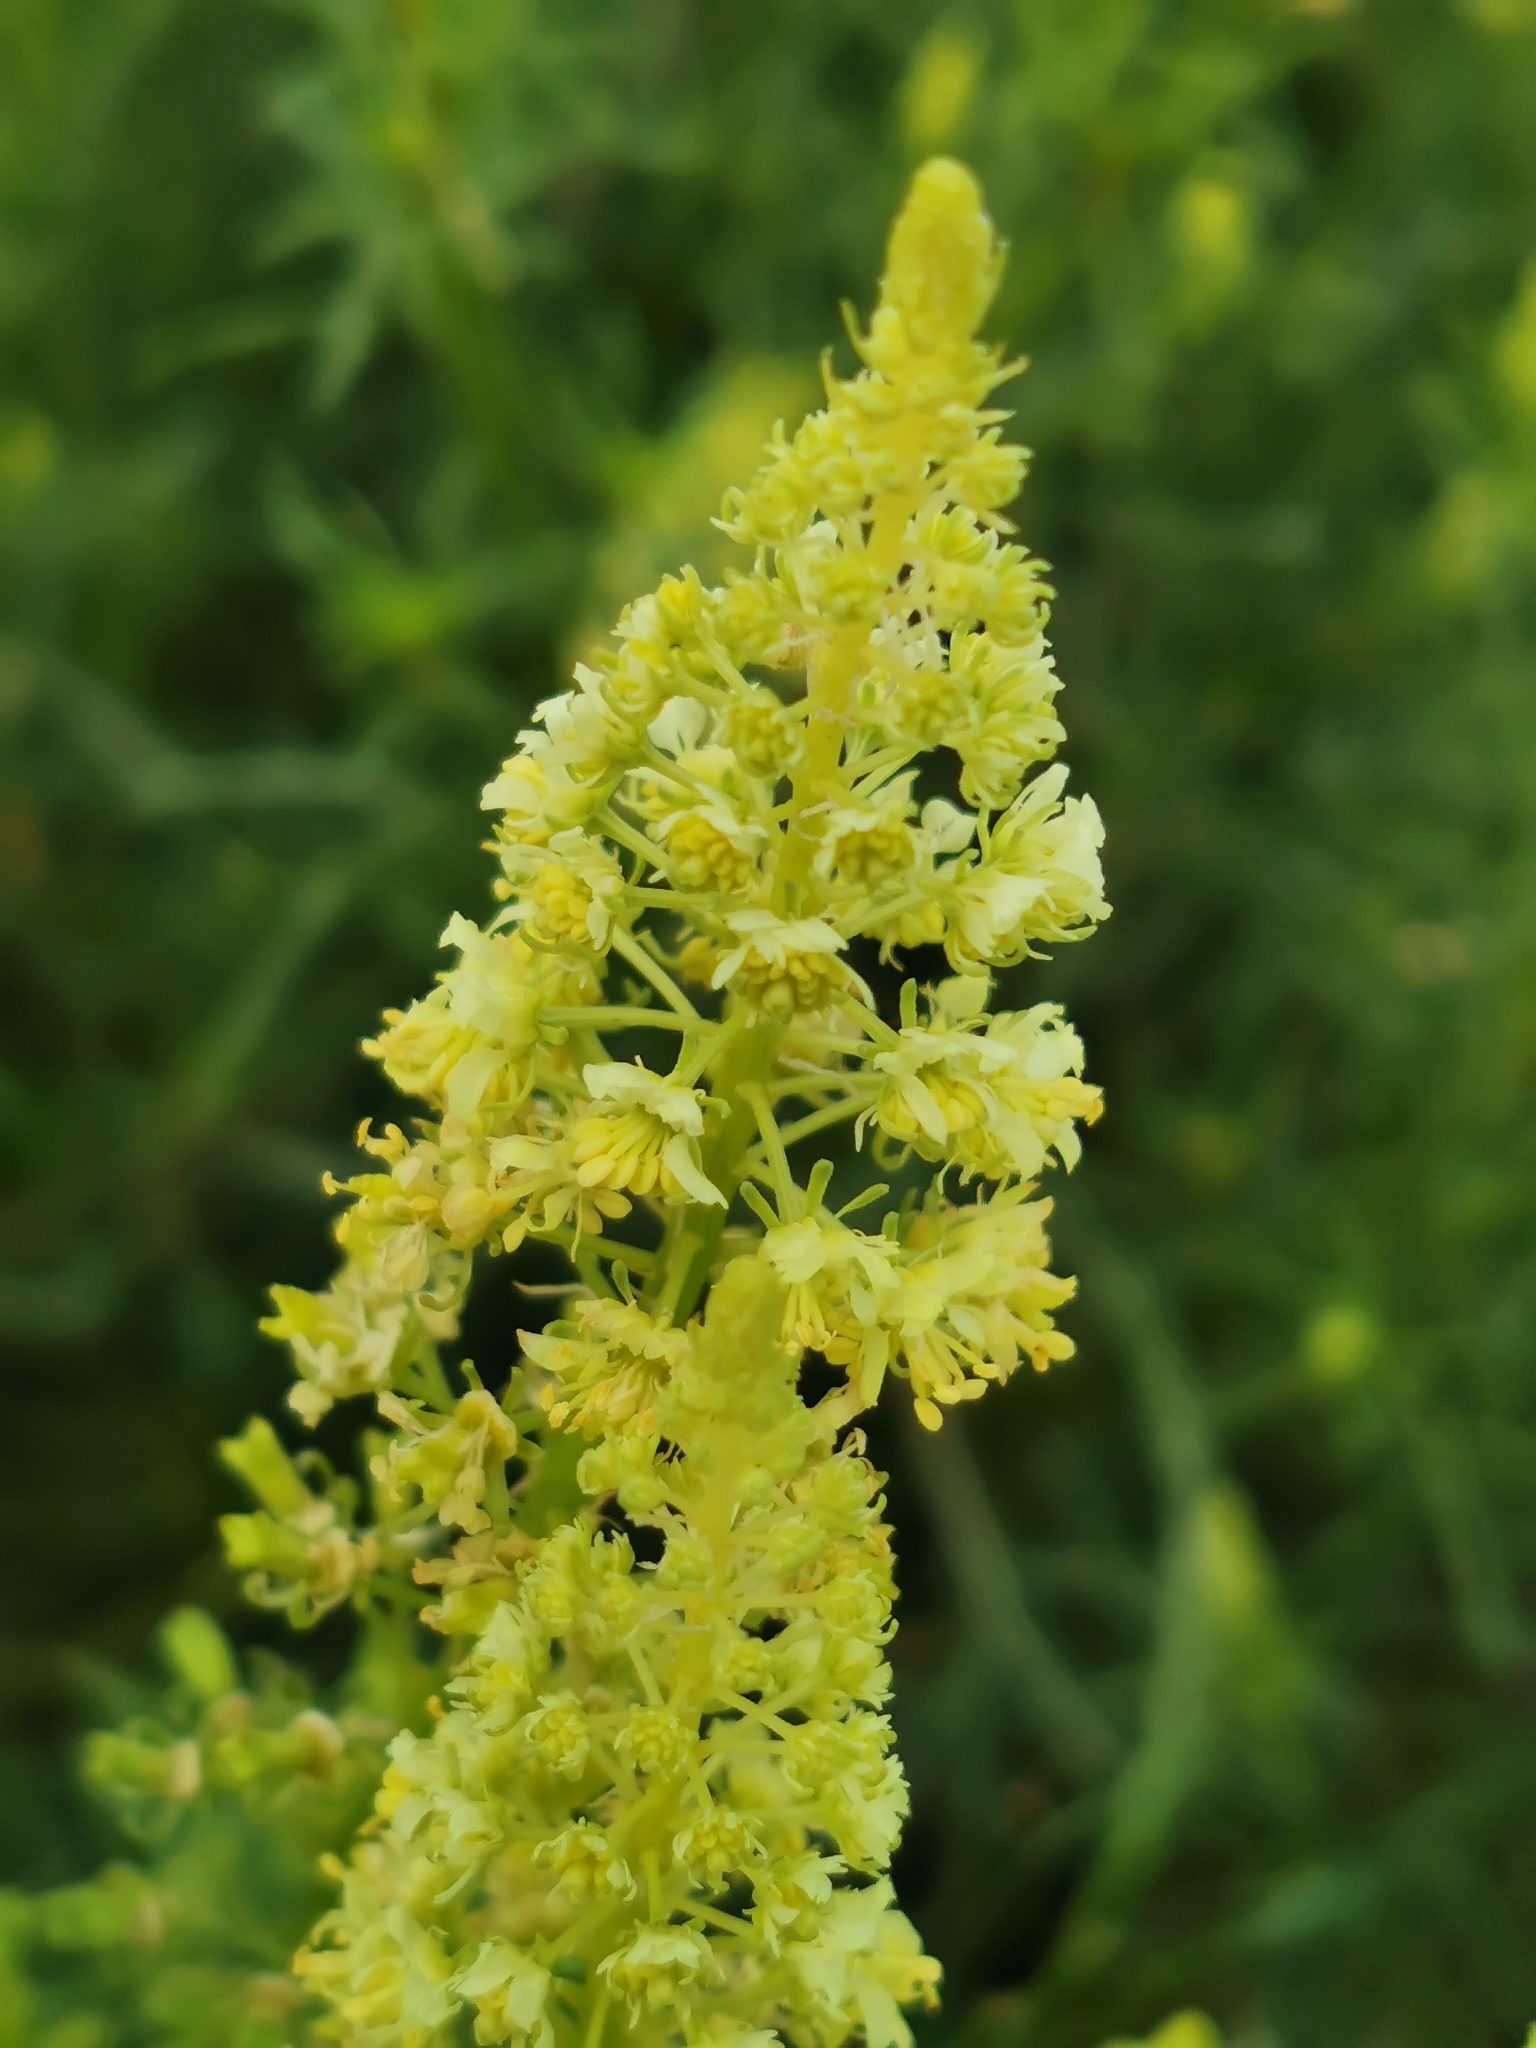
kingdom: Plantae
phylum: Tracheophyta
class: Magnoliopsida
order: Brassicales
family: Resedaceae
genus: Reseda
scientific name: Reseda lutea
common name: Wild mignonette
